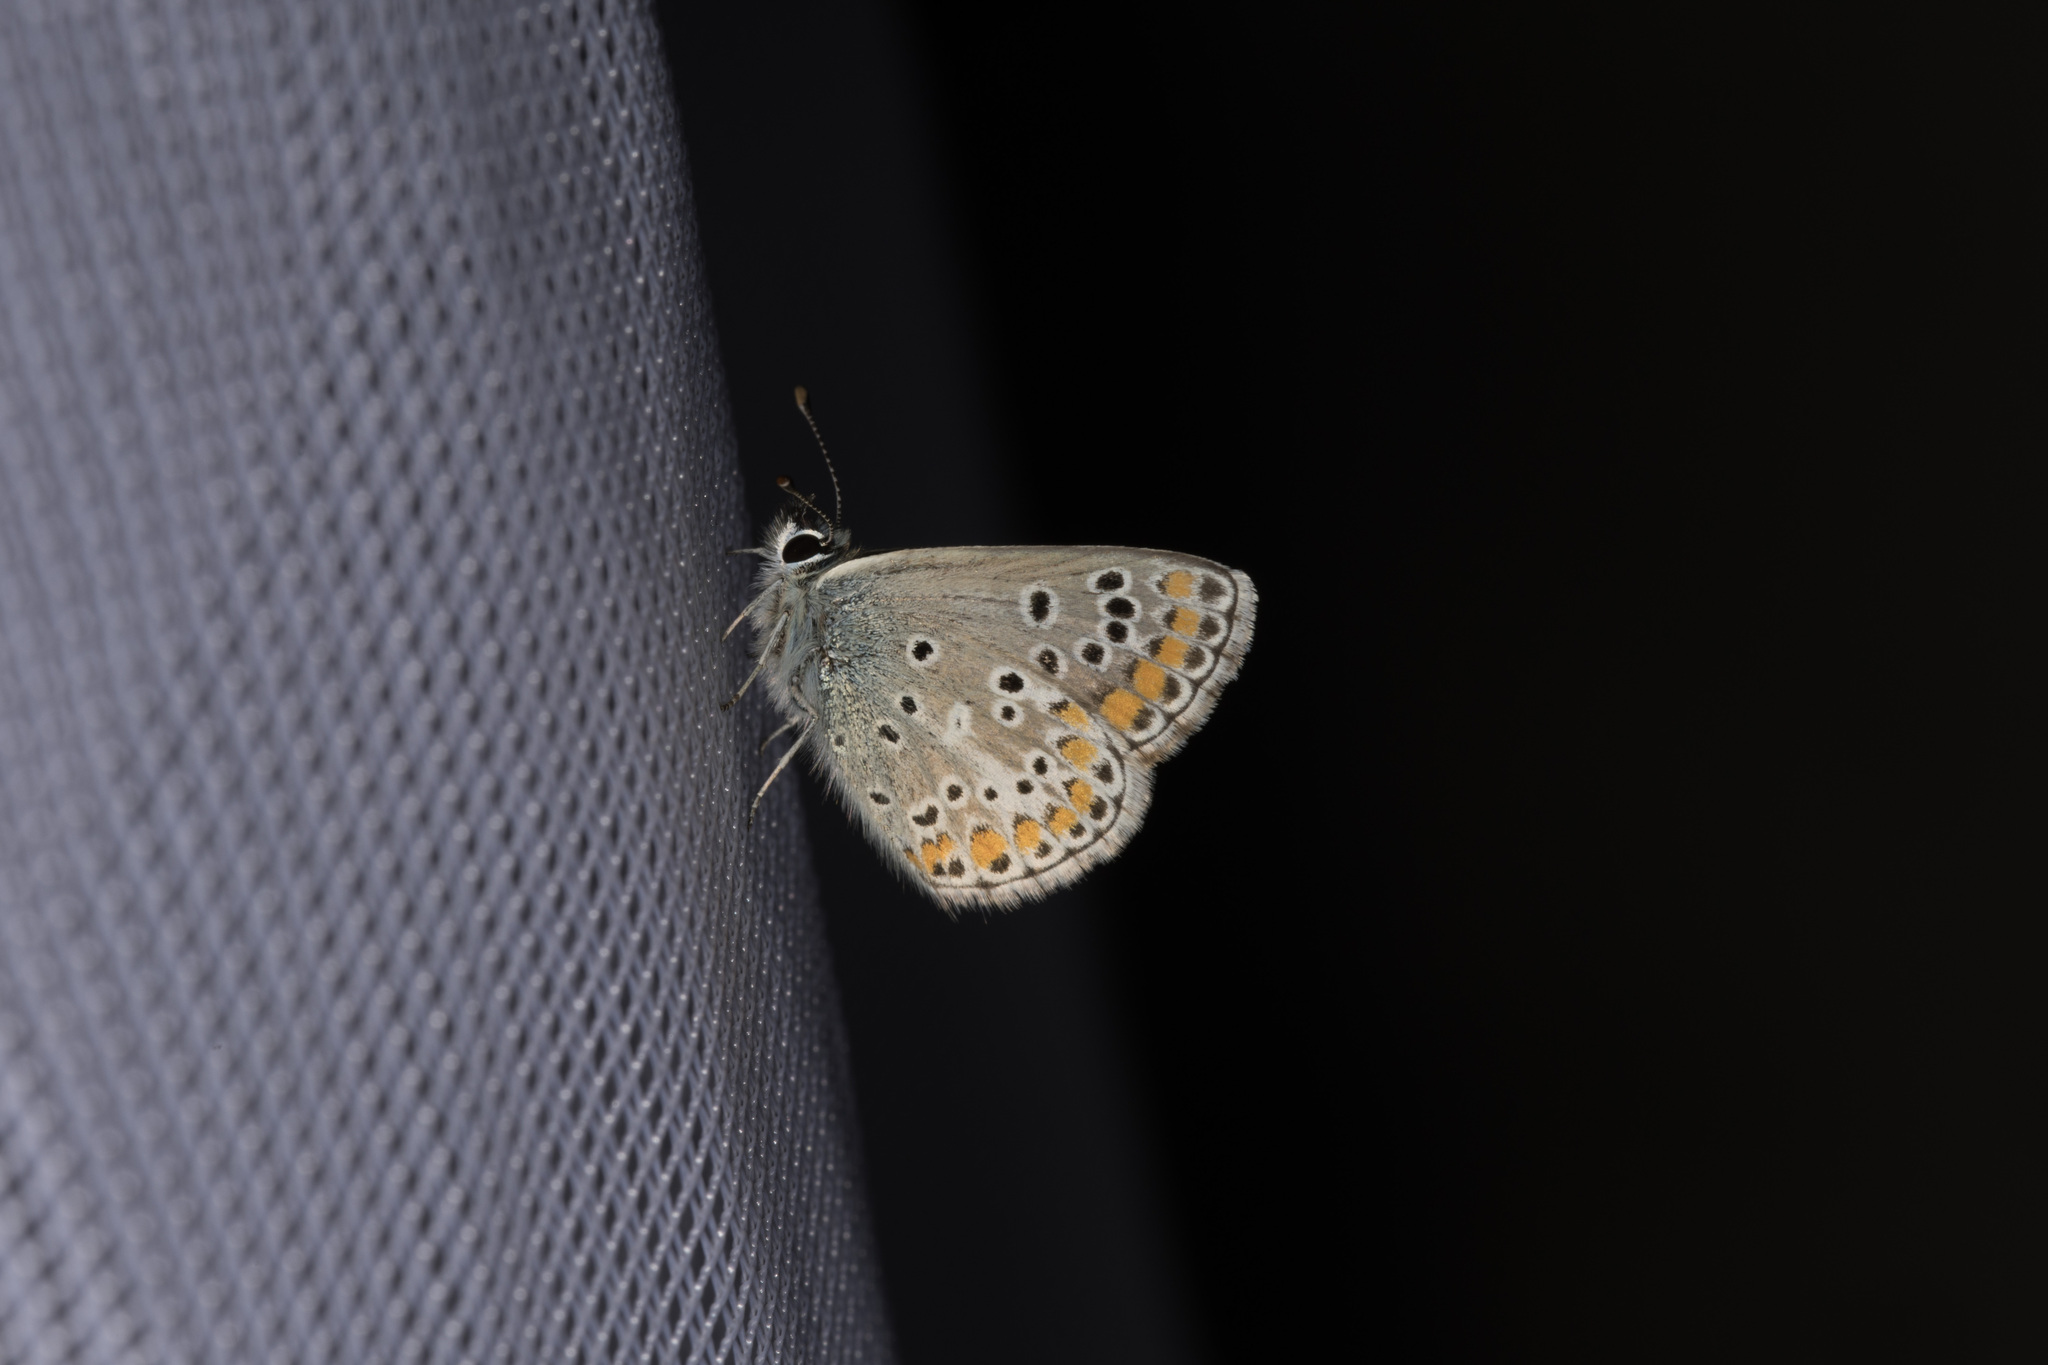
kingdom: Animalia
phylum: Arthropoda
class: Insecta
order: Lepidoptera
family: Lycaenidae
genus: Aricia
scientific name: Aricia agestis
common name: Brown argus
